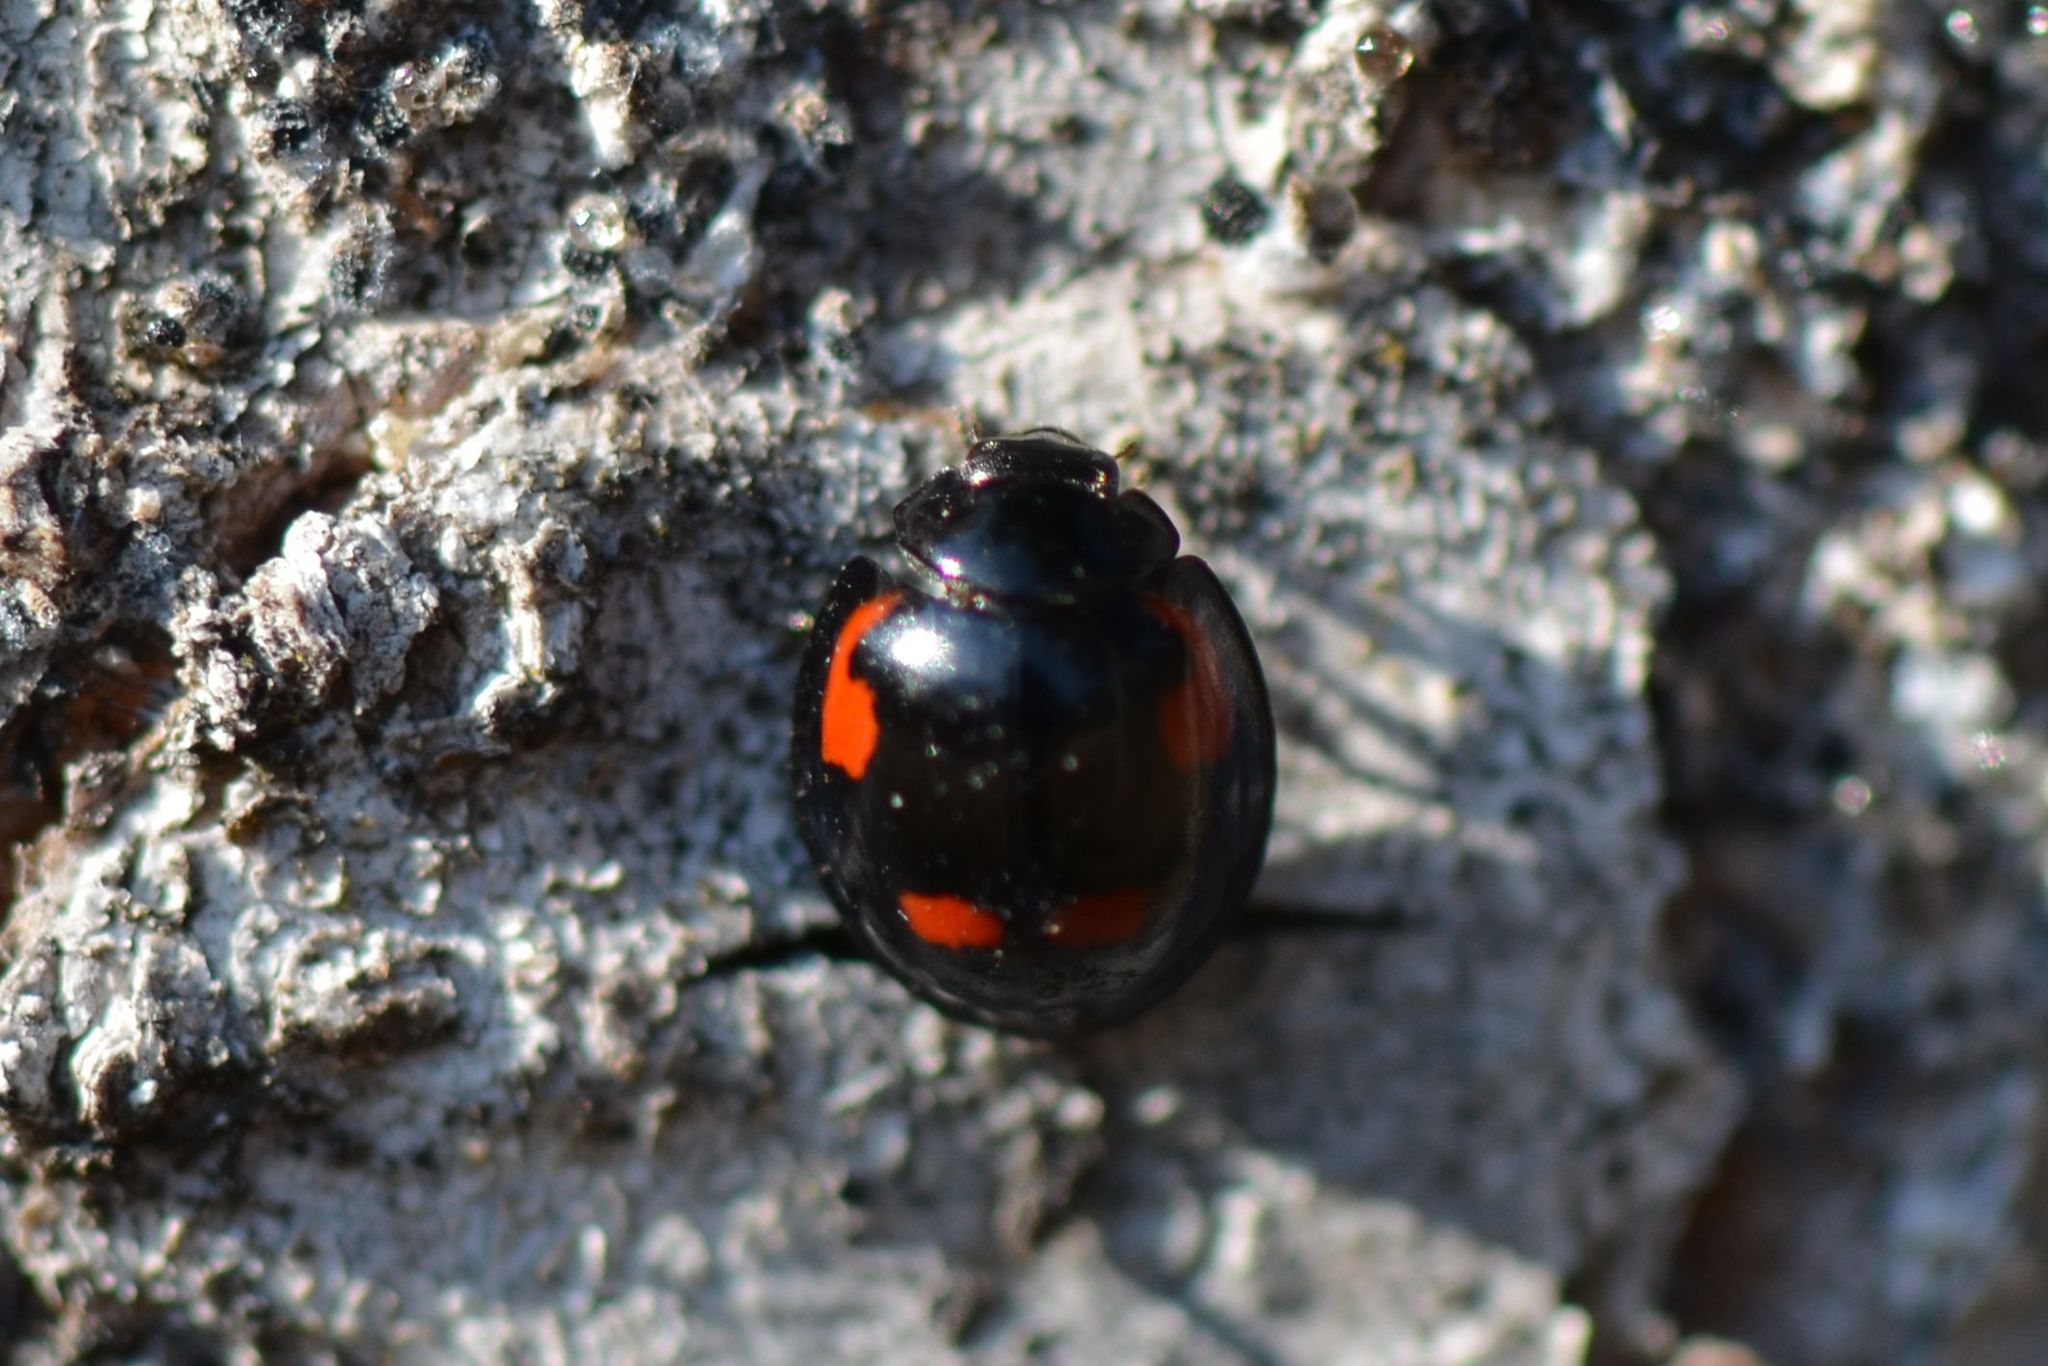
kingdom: Animalia
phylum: Arthropoda
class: Insecta
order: Coleoptera
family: Coccinellidae
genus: Brumus
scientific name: Brumus quadripustulatus
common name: Ladybird beetle
